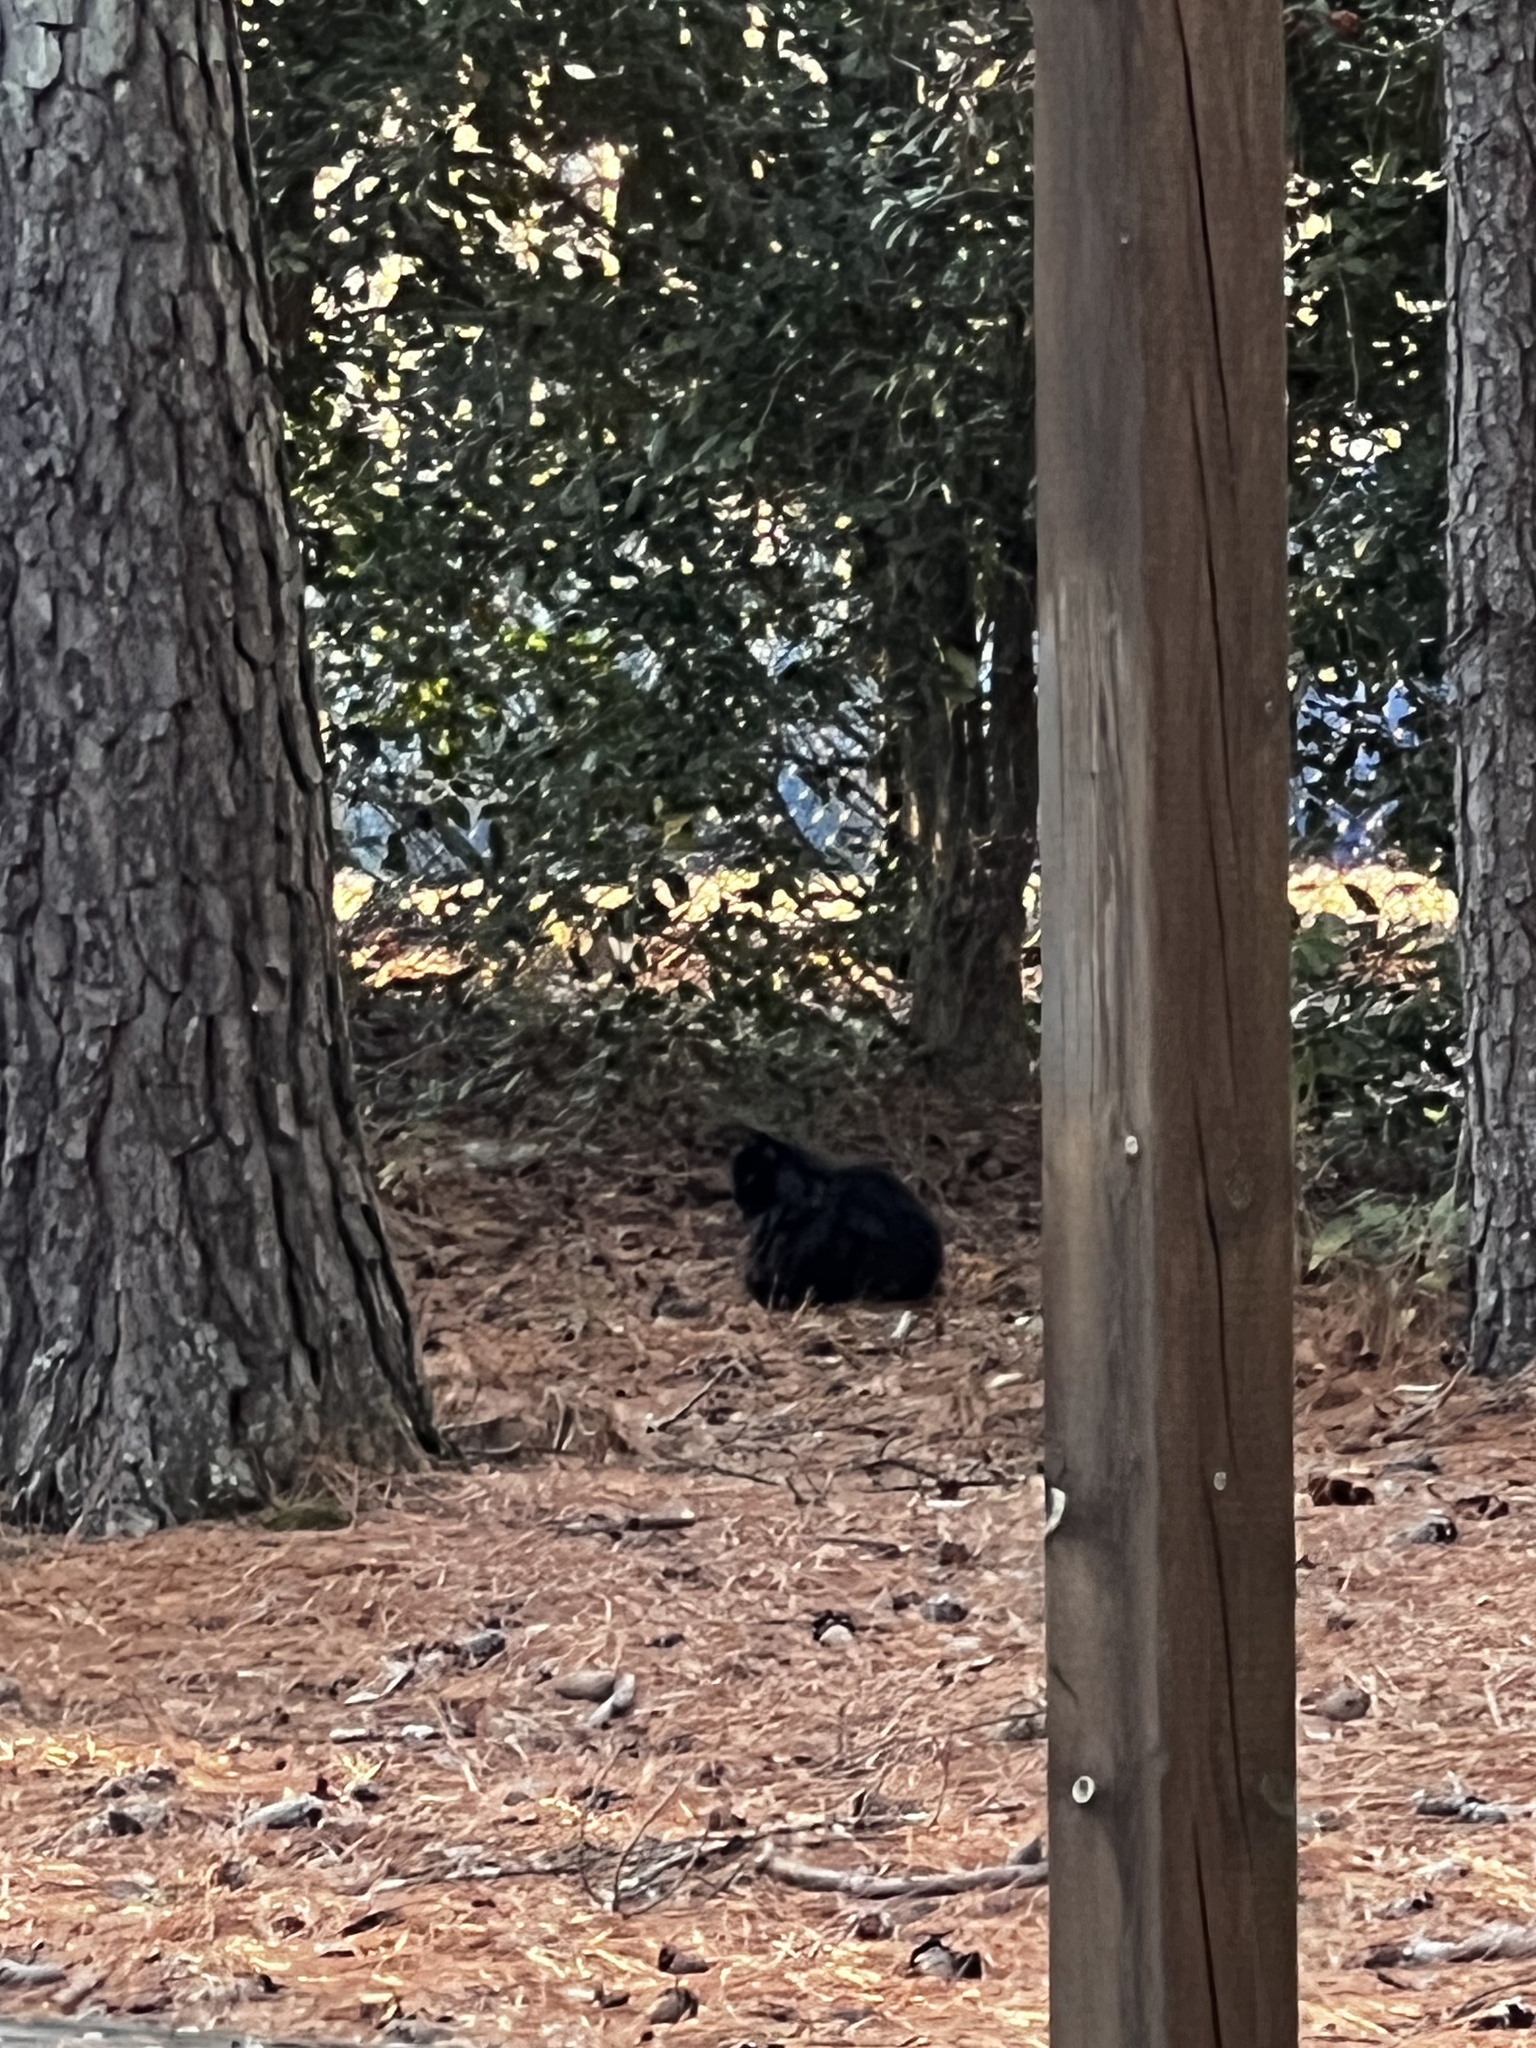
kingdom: Animalia
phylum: Chordata
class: Mammalia
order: Carnivora
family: Felidae
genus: Felis
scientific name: Felis catus
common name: Domestic cat
